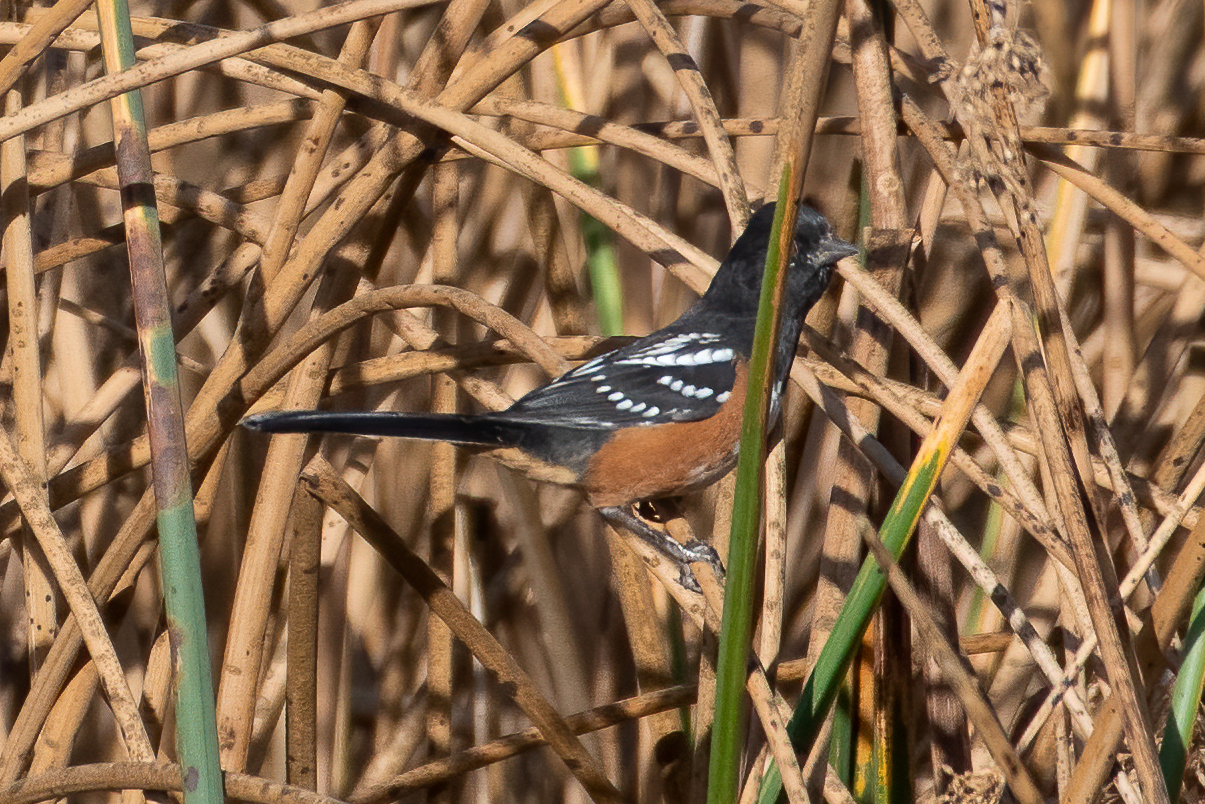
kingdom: Animalia
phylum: Chordata
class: Aves
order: Passeriformes
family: Passerellidae
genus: Pipilo
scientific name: Pipilo maculatus
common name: Spotted towhee
